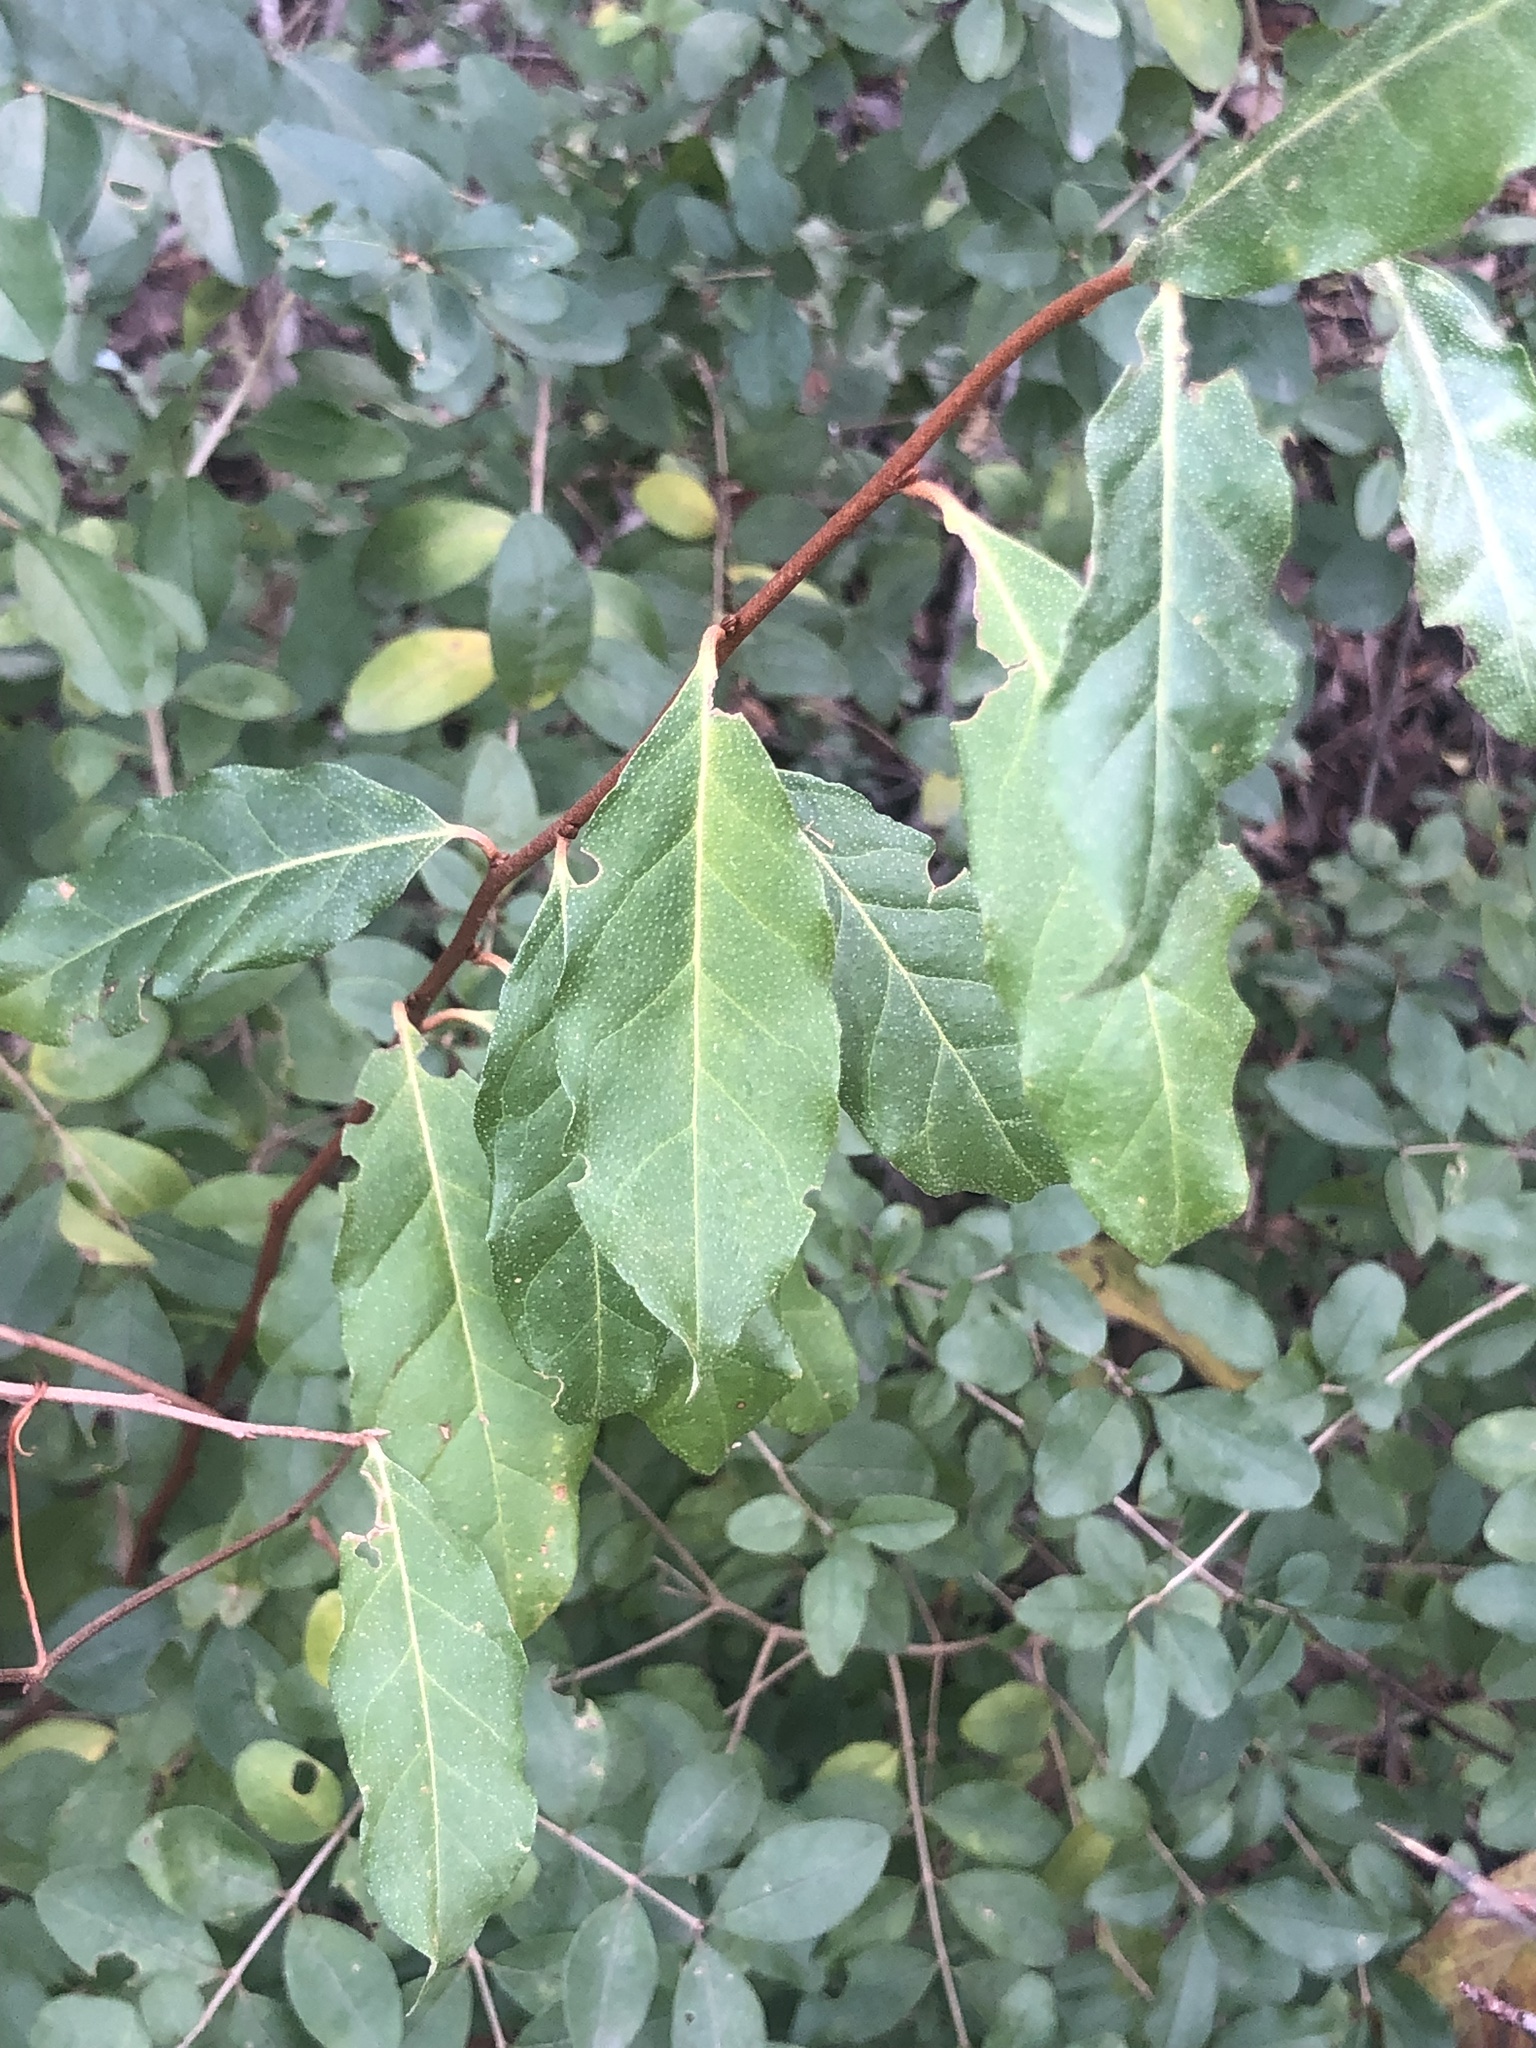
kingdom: Plantae
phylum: Tracheophyta
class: Magnoliopsida
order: Rosales
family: Elaeagnaceae
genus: Elaeagnus
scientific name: Elaeagnus umbellata
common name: Autumn olive
